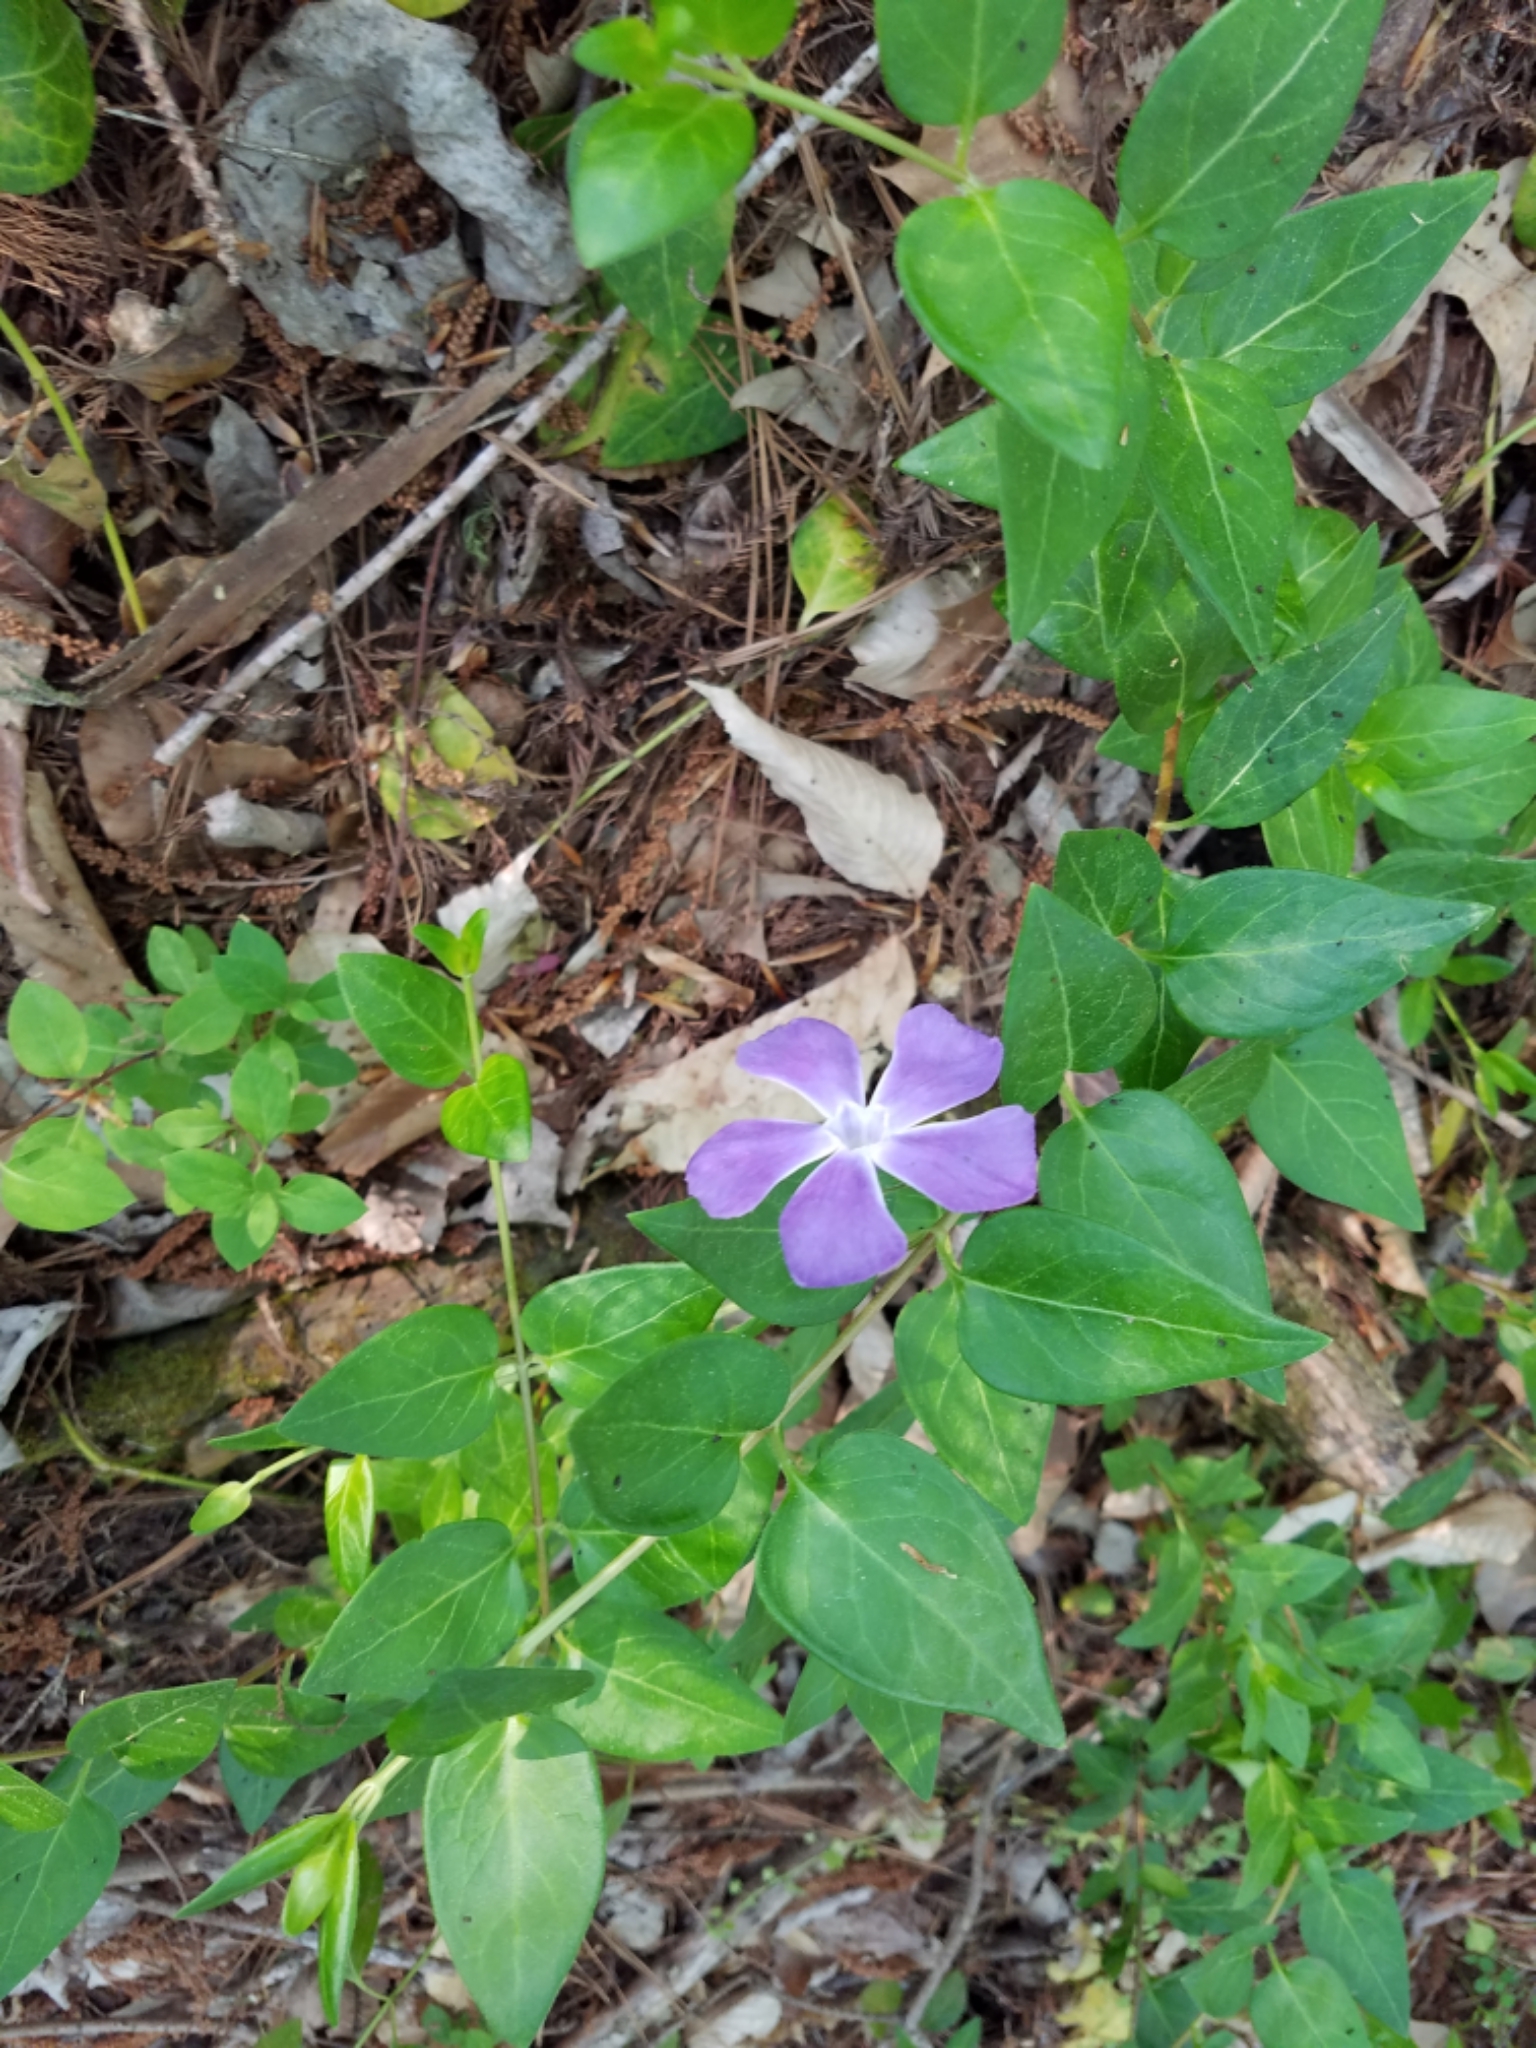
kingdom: Plantae
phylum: Tracheophyta
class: Magnoliopsida
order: Gentianales
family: Apocynaceae
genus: Vinca
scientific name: Vinca major
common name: Greater periwinkle
